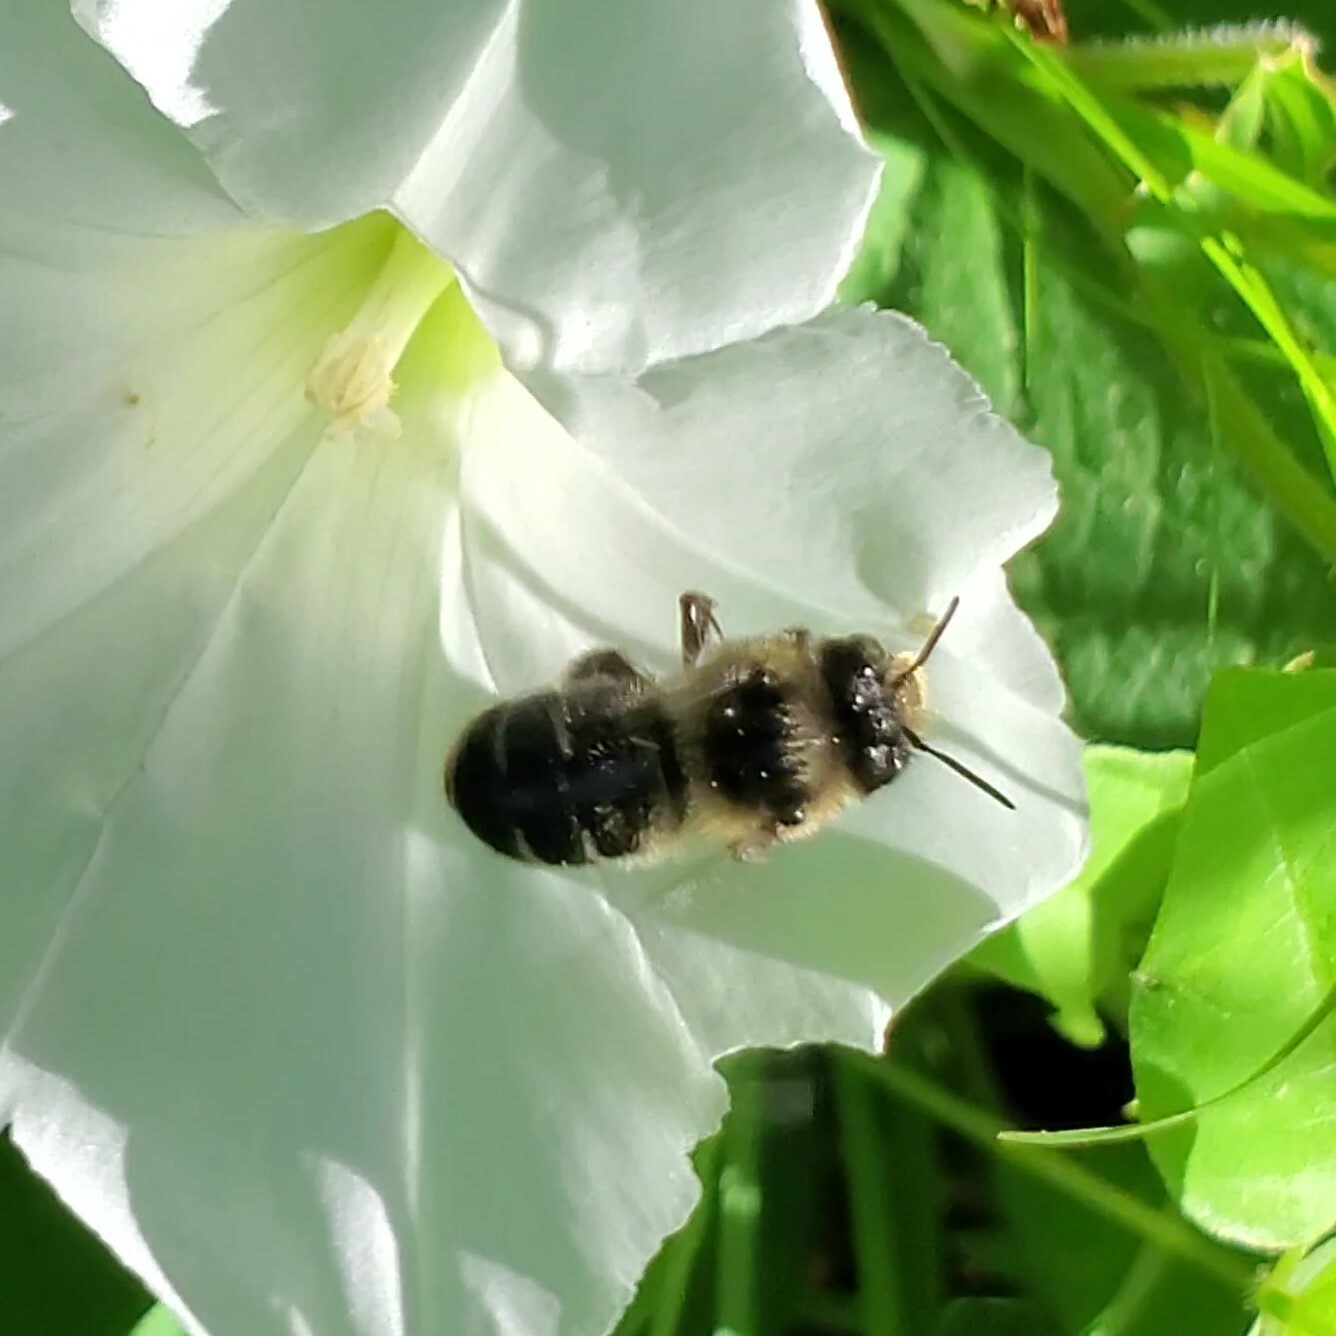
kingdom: Animalia
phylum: Arthropoda
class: Insecta
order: Hymenoptera
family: Apidae
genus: Anthophora
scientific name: Anthophora terminalis
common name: Orange-tipped wood-digger bee
